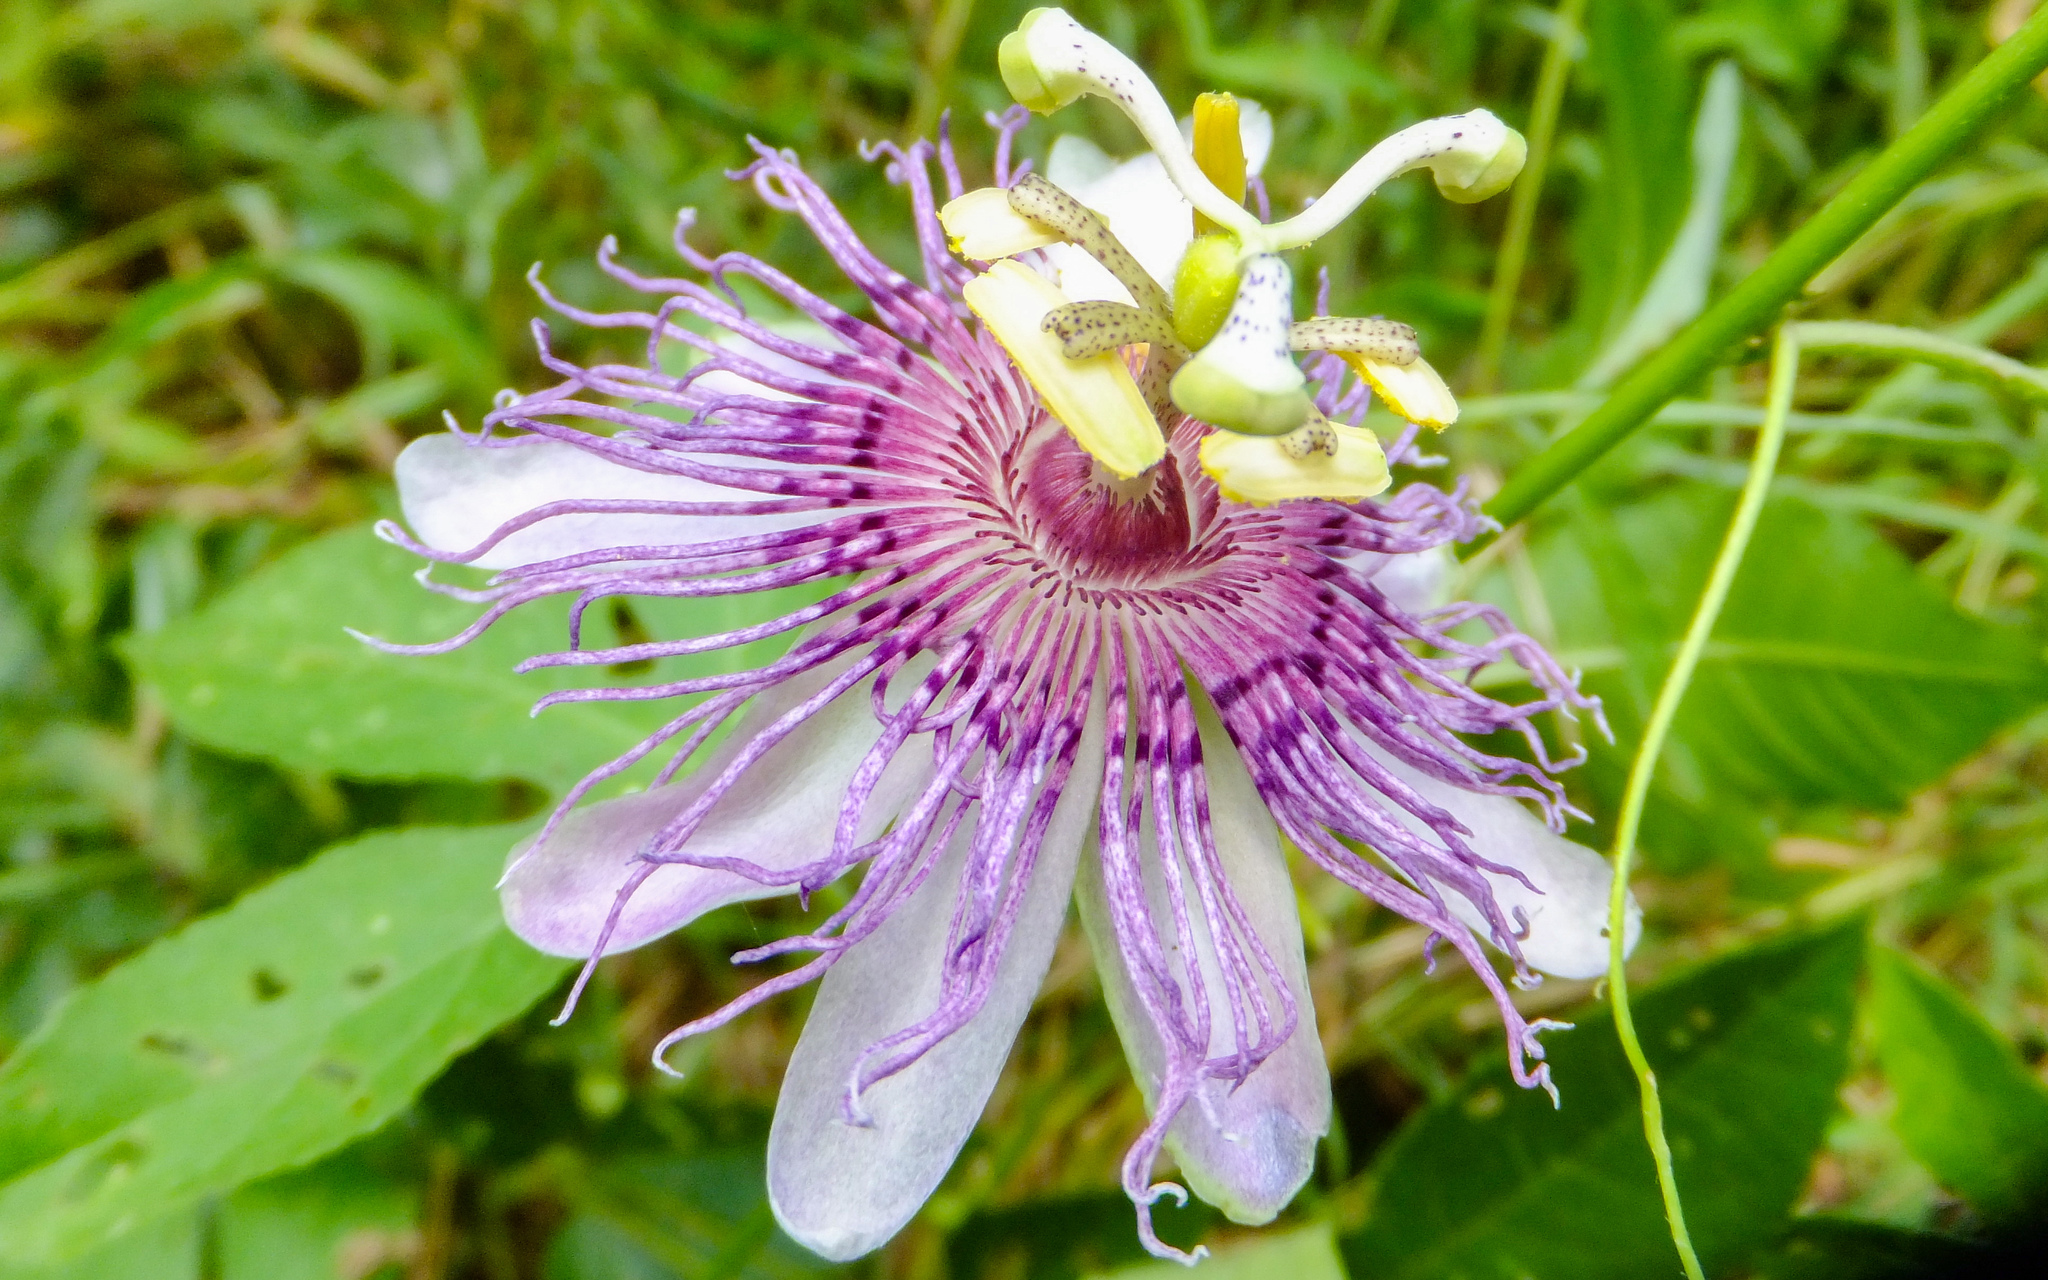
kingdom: Plantae
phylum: Tracheophyta
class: Magnoliopsida
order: Malpighiales
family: Passifloraceae
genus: Passiflora
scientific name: Passiflora incarnata
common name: Apricot-vine
